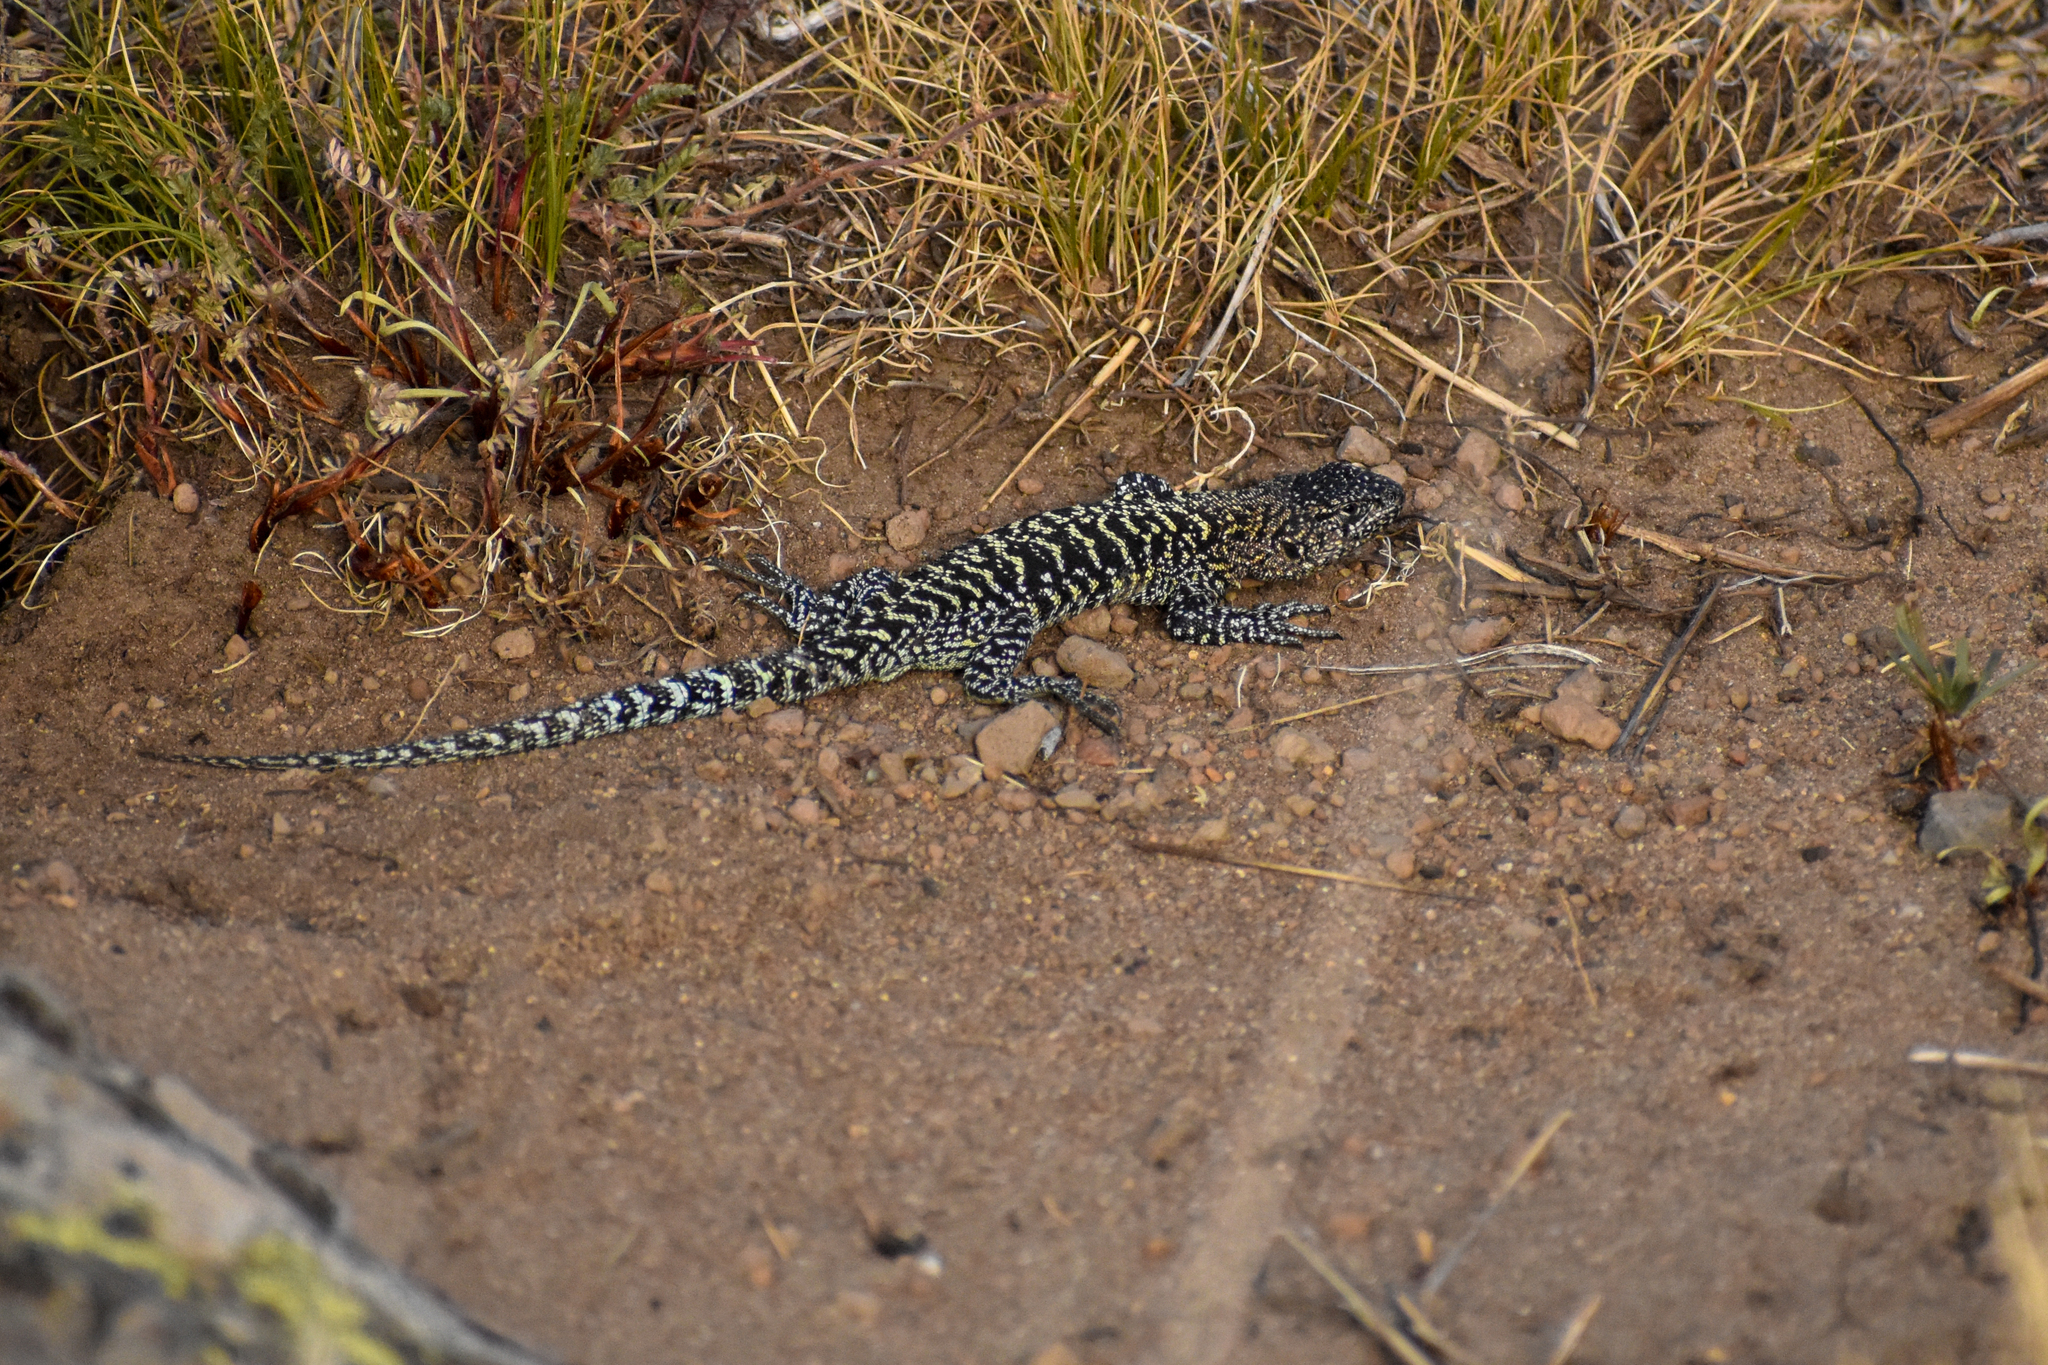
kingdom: Animalia
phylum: Chordata
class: Squamata
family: Liolaemidae
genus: Liolaemus
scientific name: Liolaemus kingii
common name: King's tree iguana
